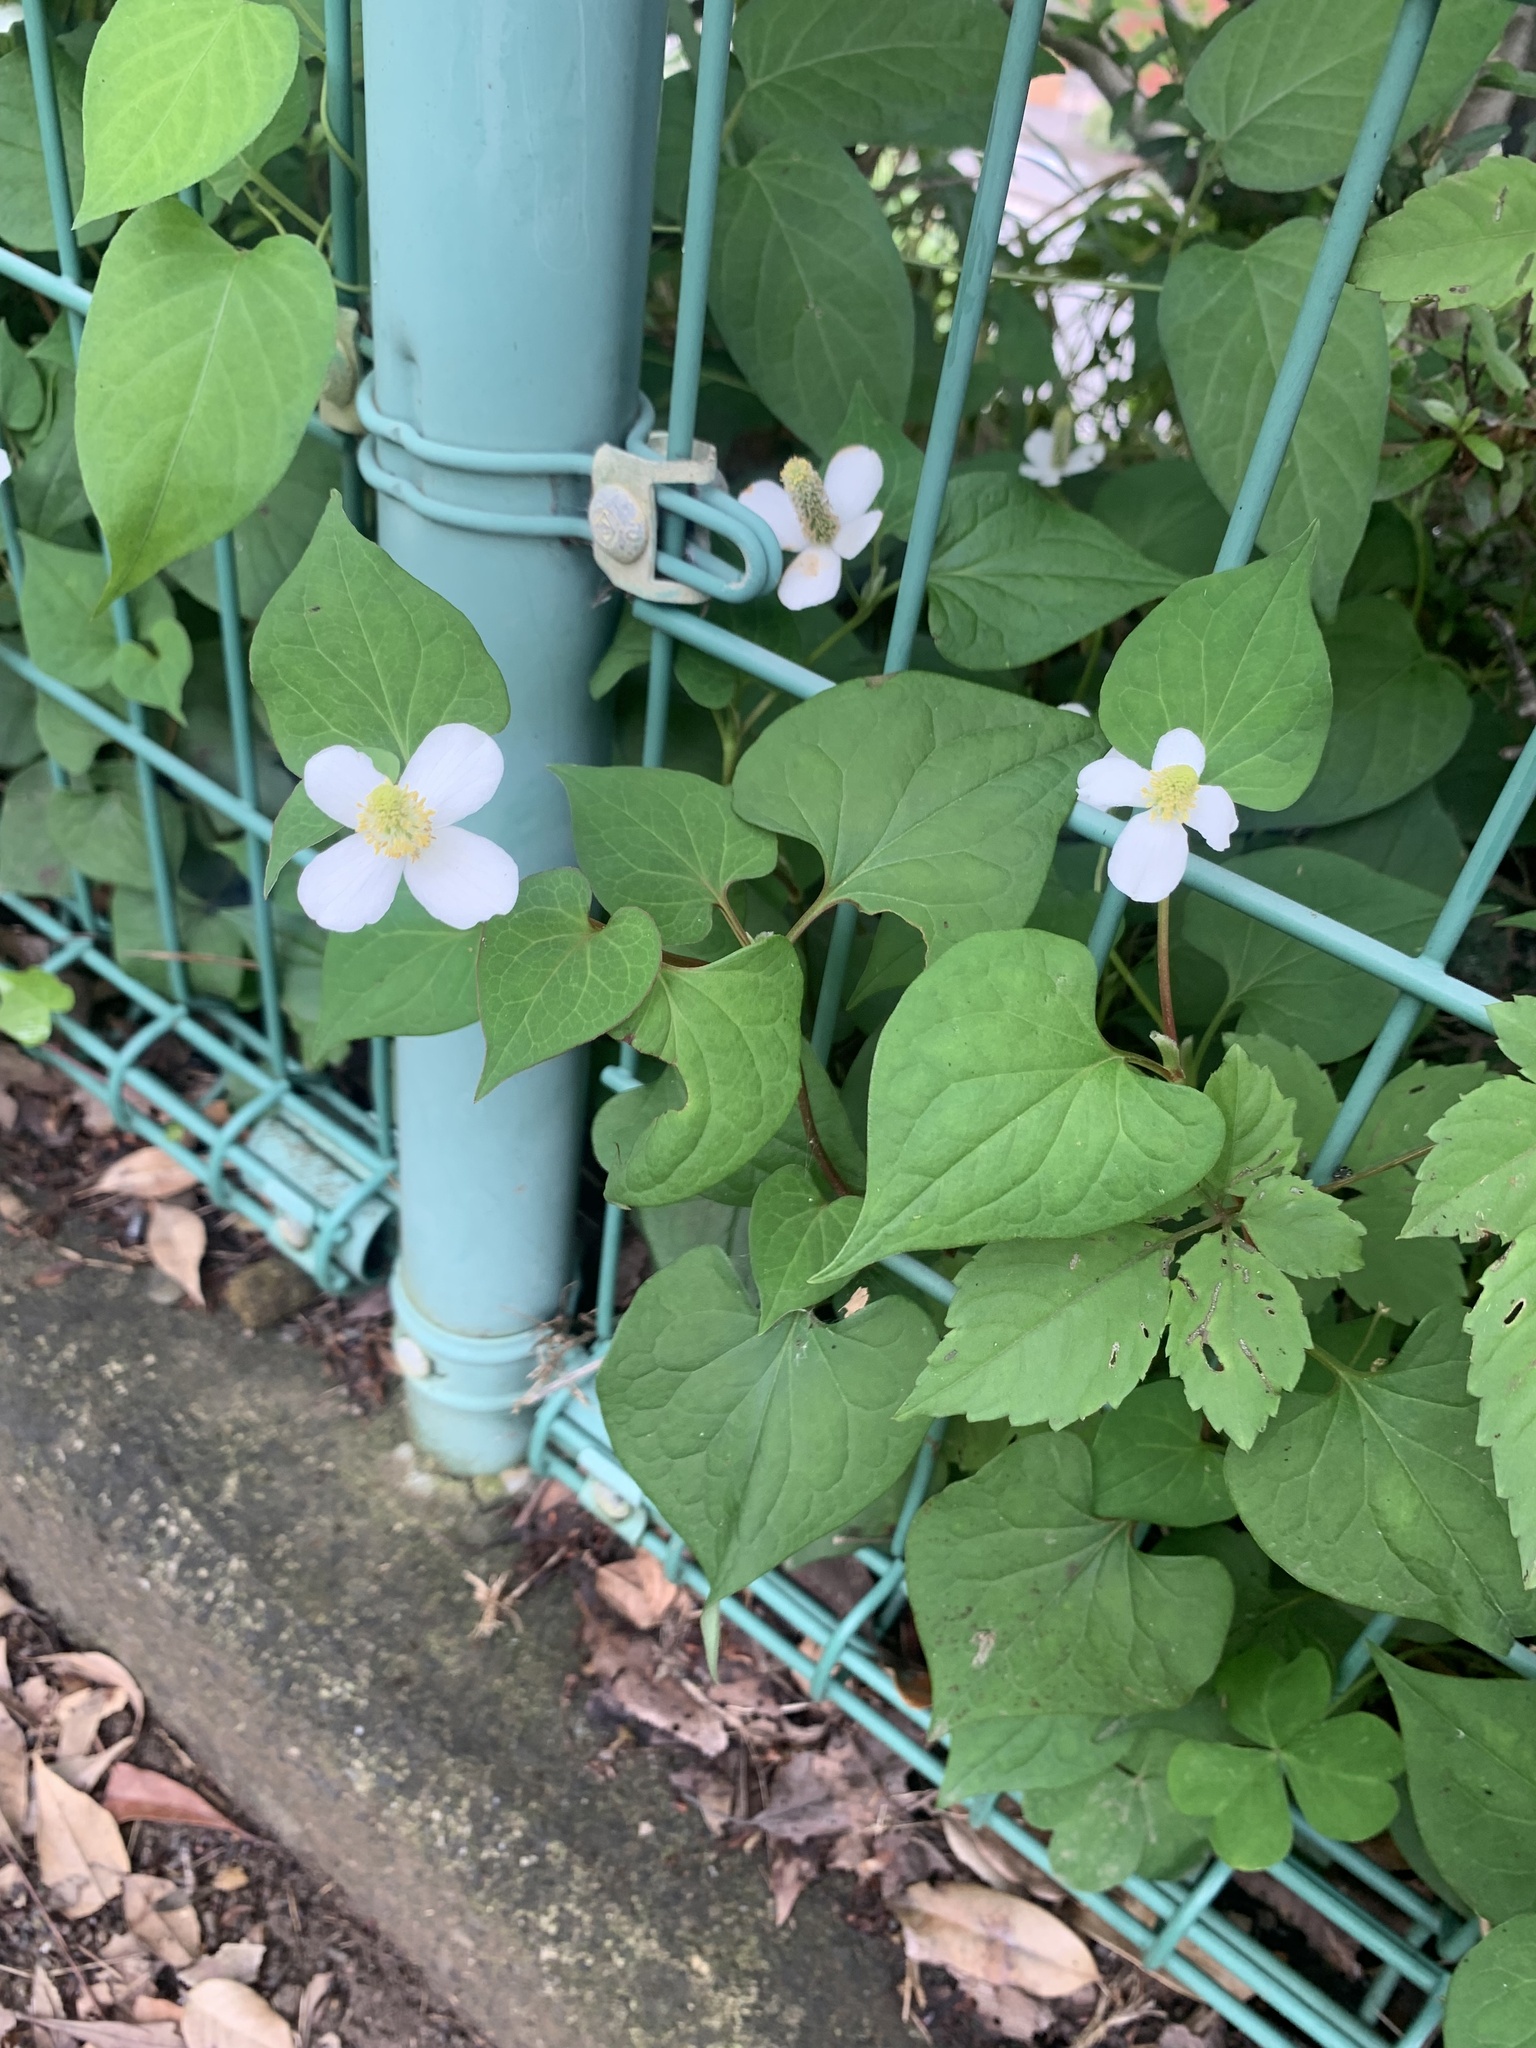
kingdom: Plantae
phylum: Tracheophyta
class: Magnoliopsida
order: Piperales
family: Saururaceae
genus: Houttuynia
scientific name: Houttuynia cordata
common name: Chameleon
